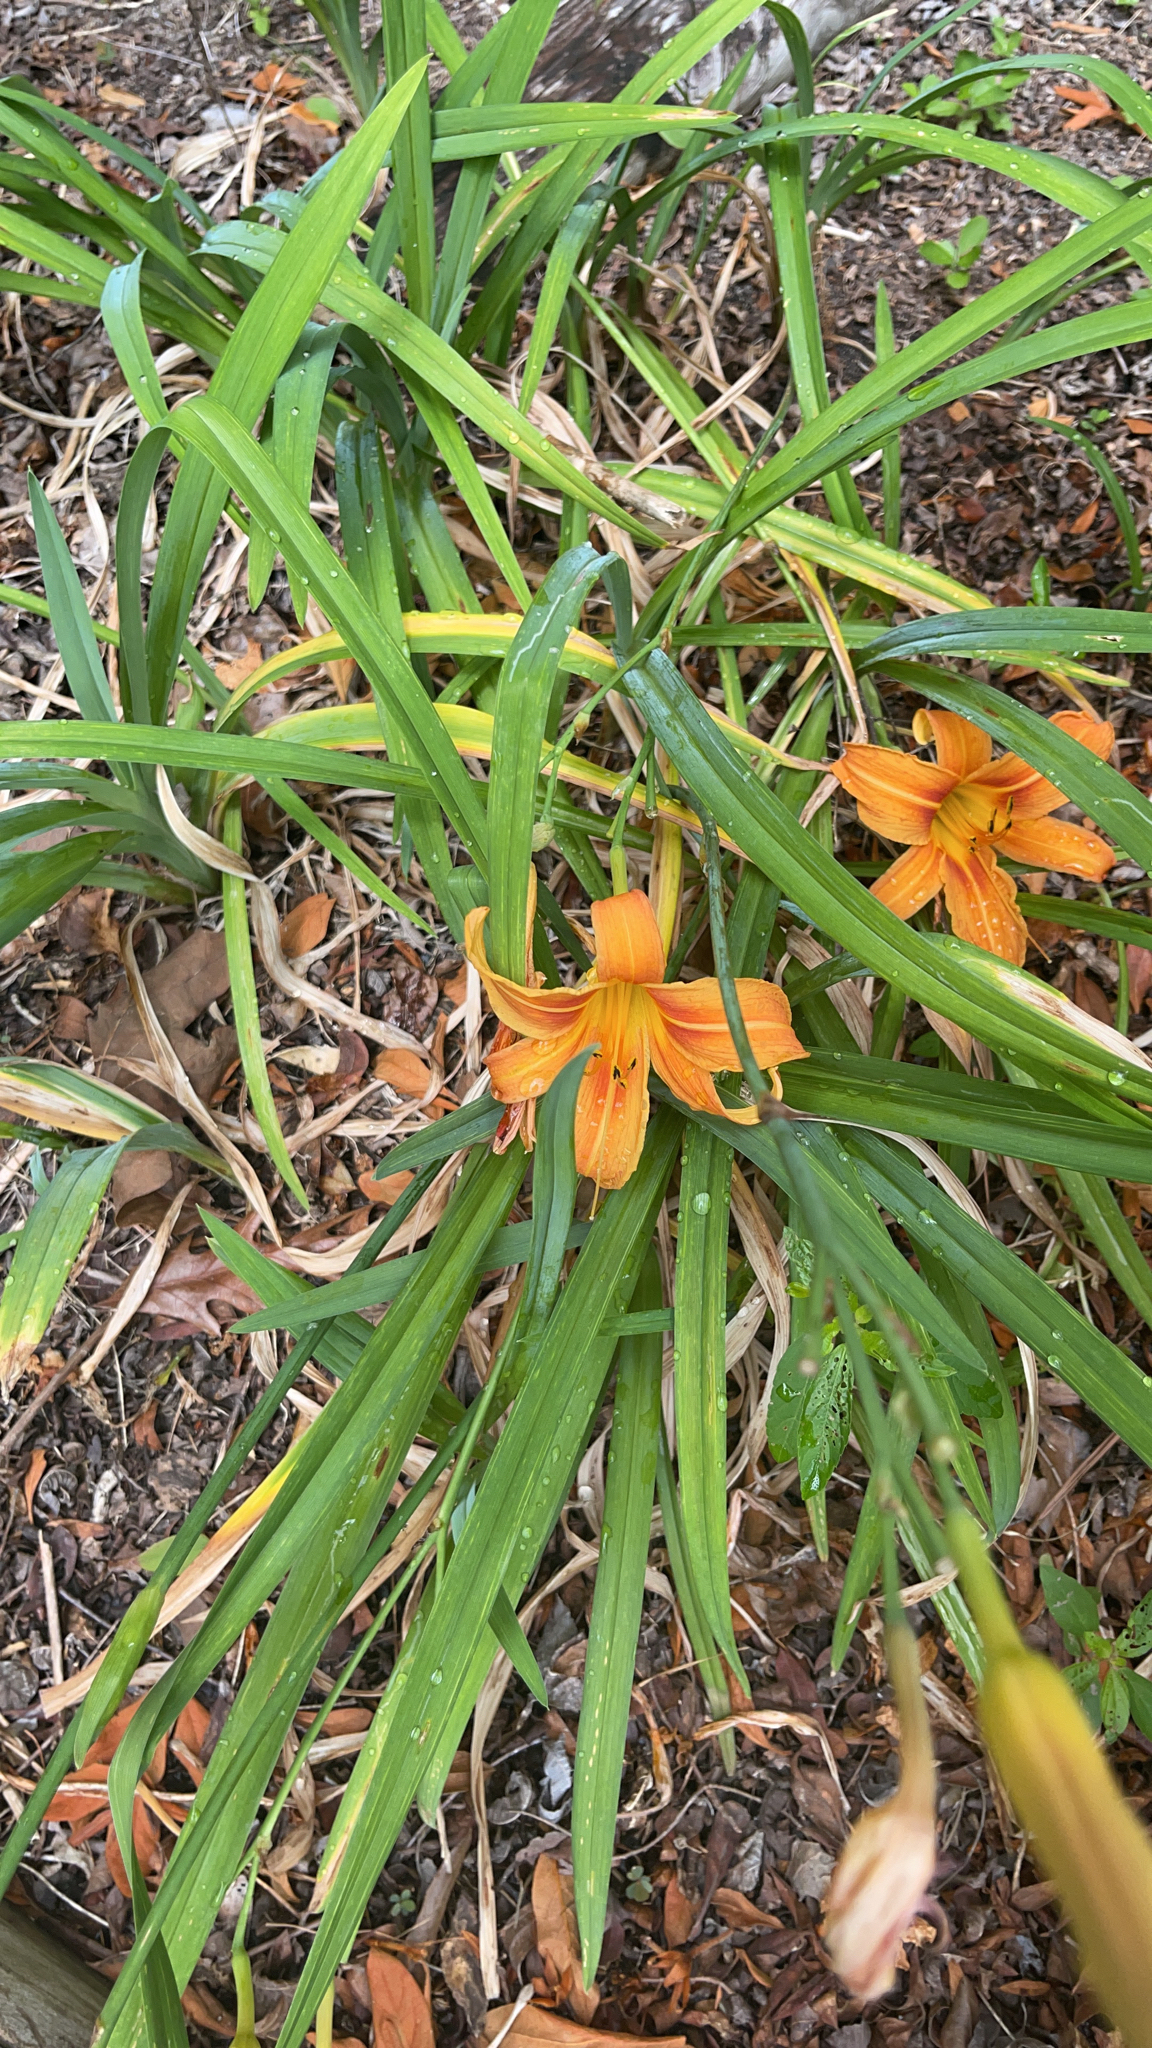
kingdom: Plantae
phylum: Tracheophyta
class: Liliopsida
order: Asparagales
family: Asphodelaceae
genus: Hemerocallis
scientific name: Hemerocallis fulva
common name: Orange day-lily
